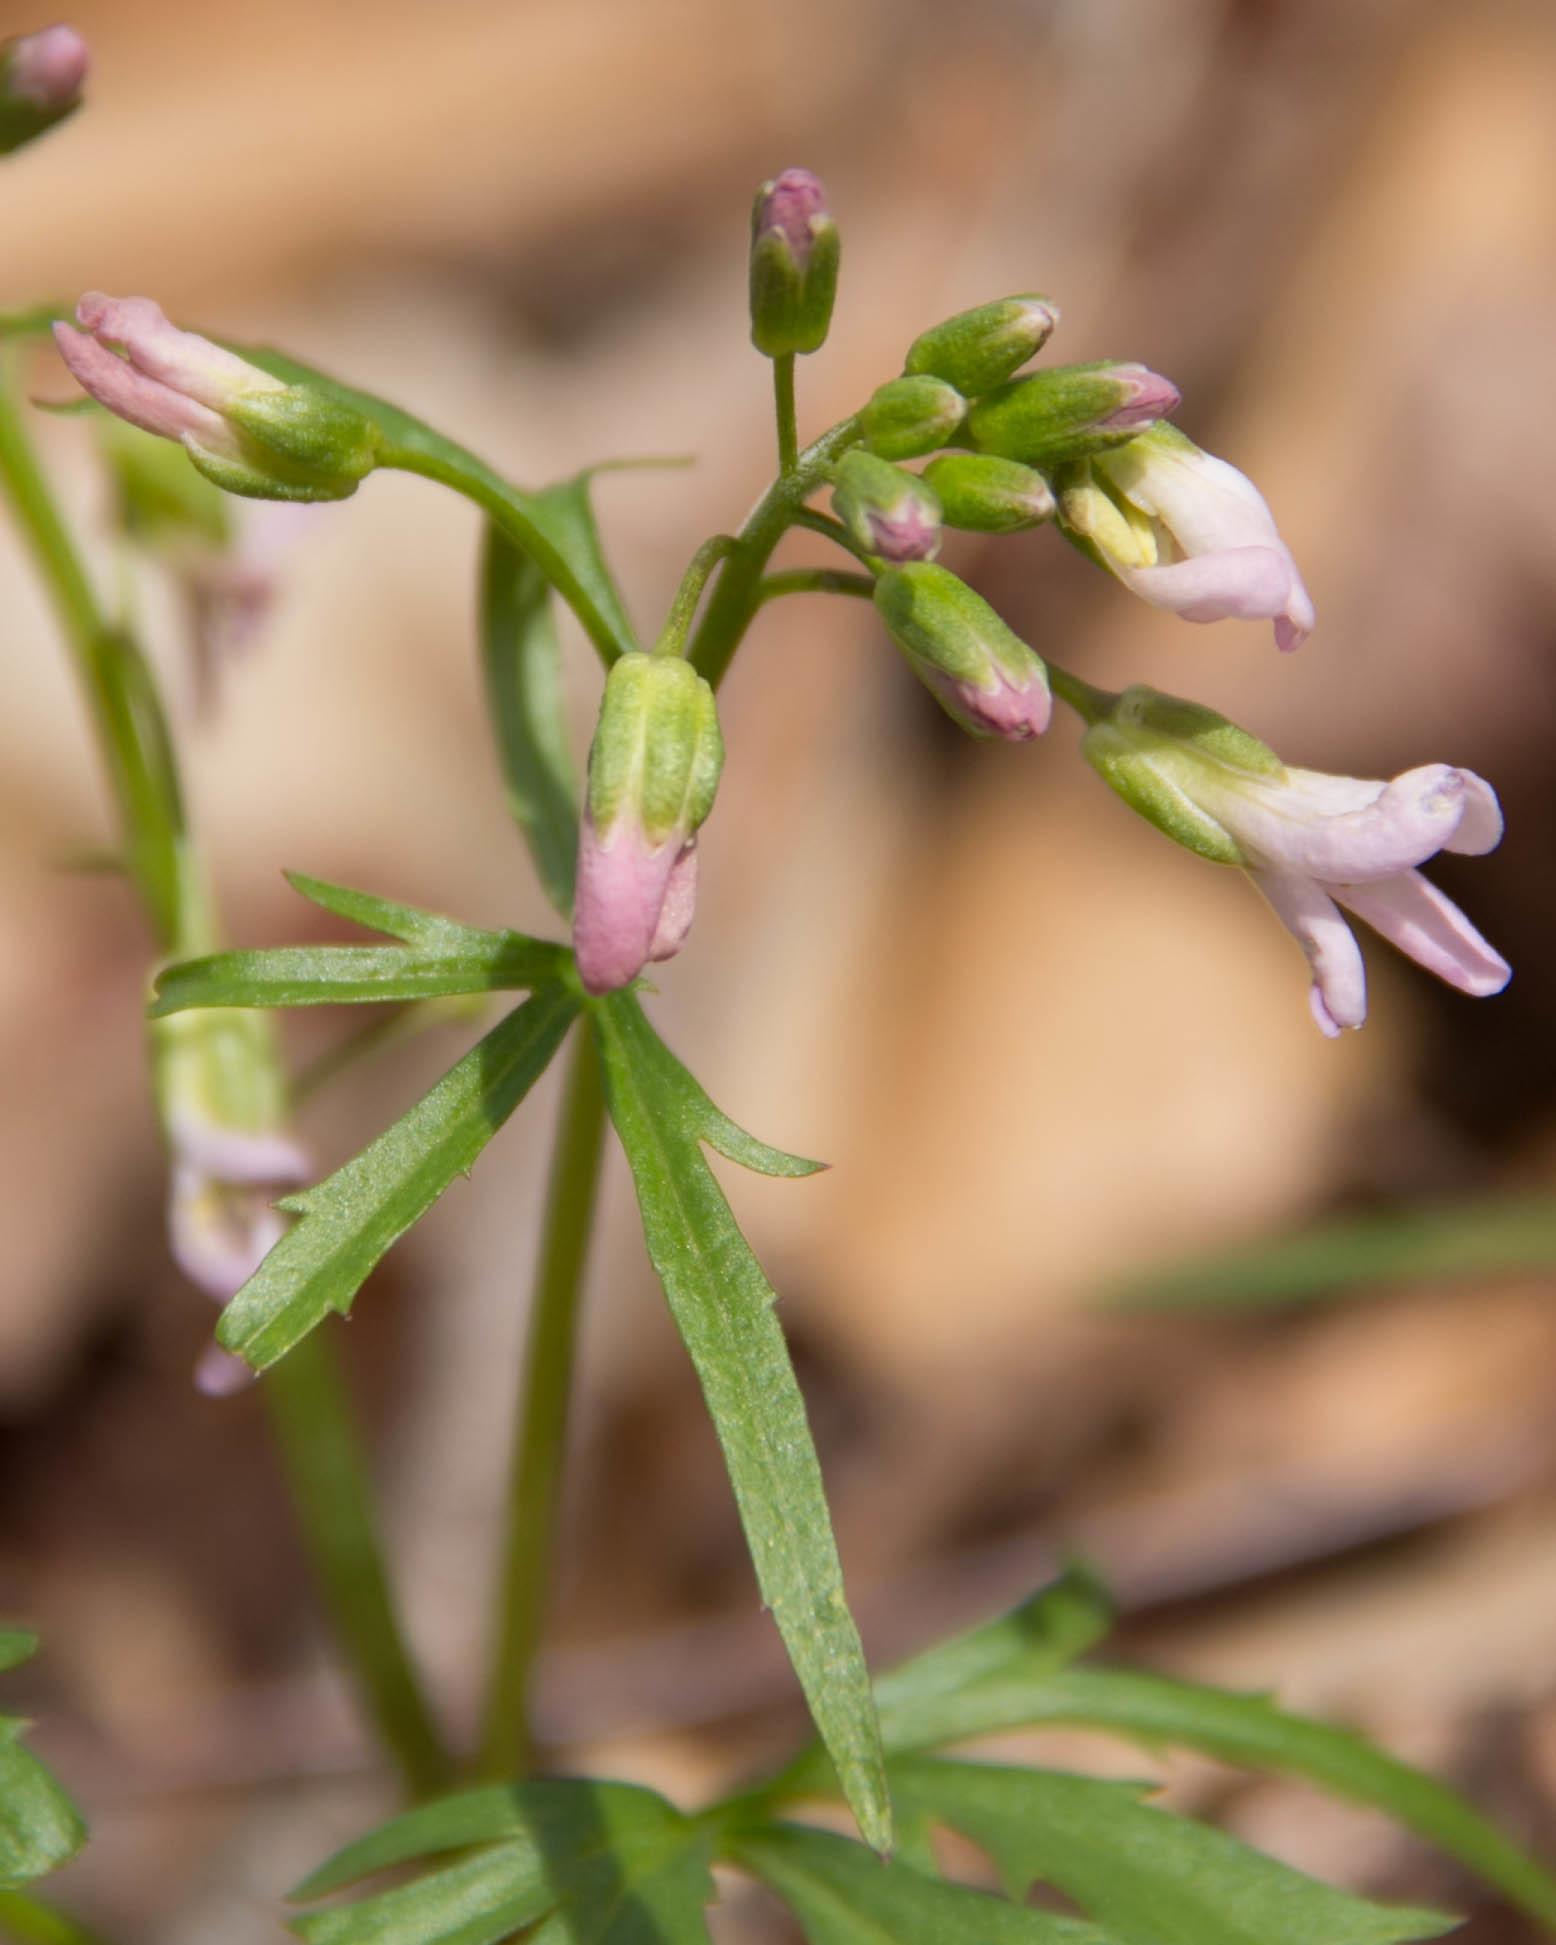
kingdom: Plantae
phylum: Tracheophyta
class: Magnoliopsida
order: Brassicales
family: Brassicaceae
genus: Cardamine
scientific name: Cardamine concatenata
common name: Cut-leaf toothcup
